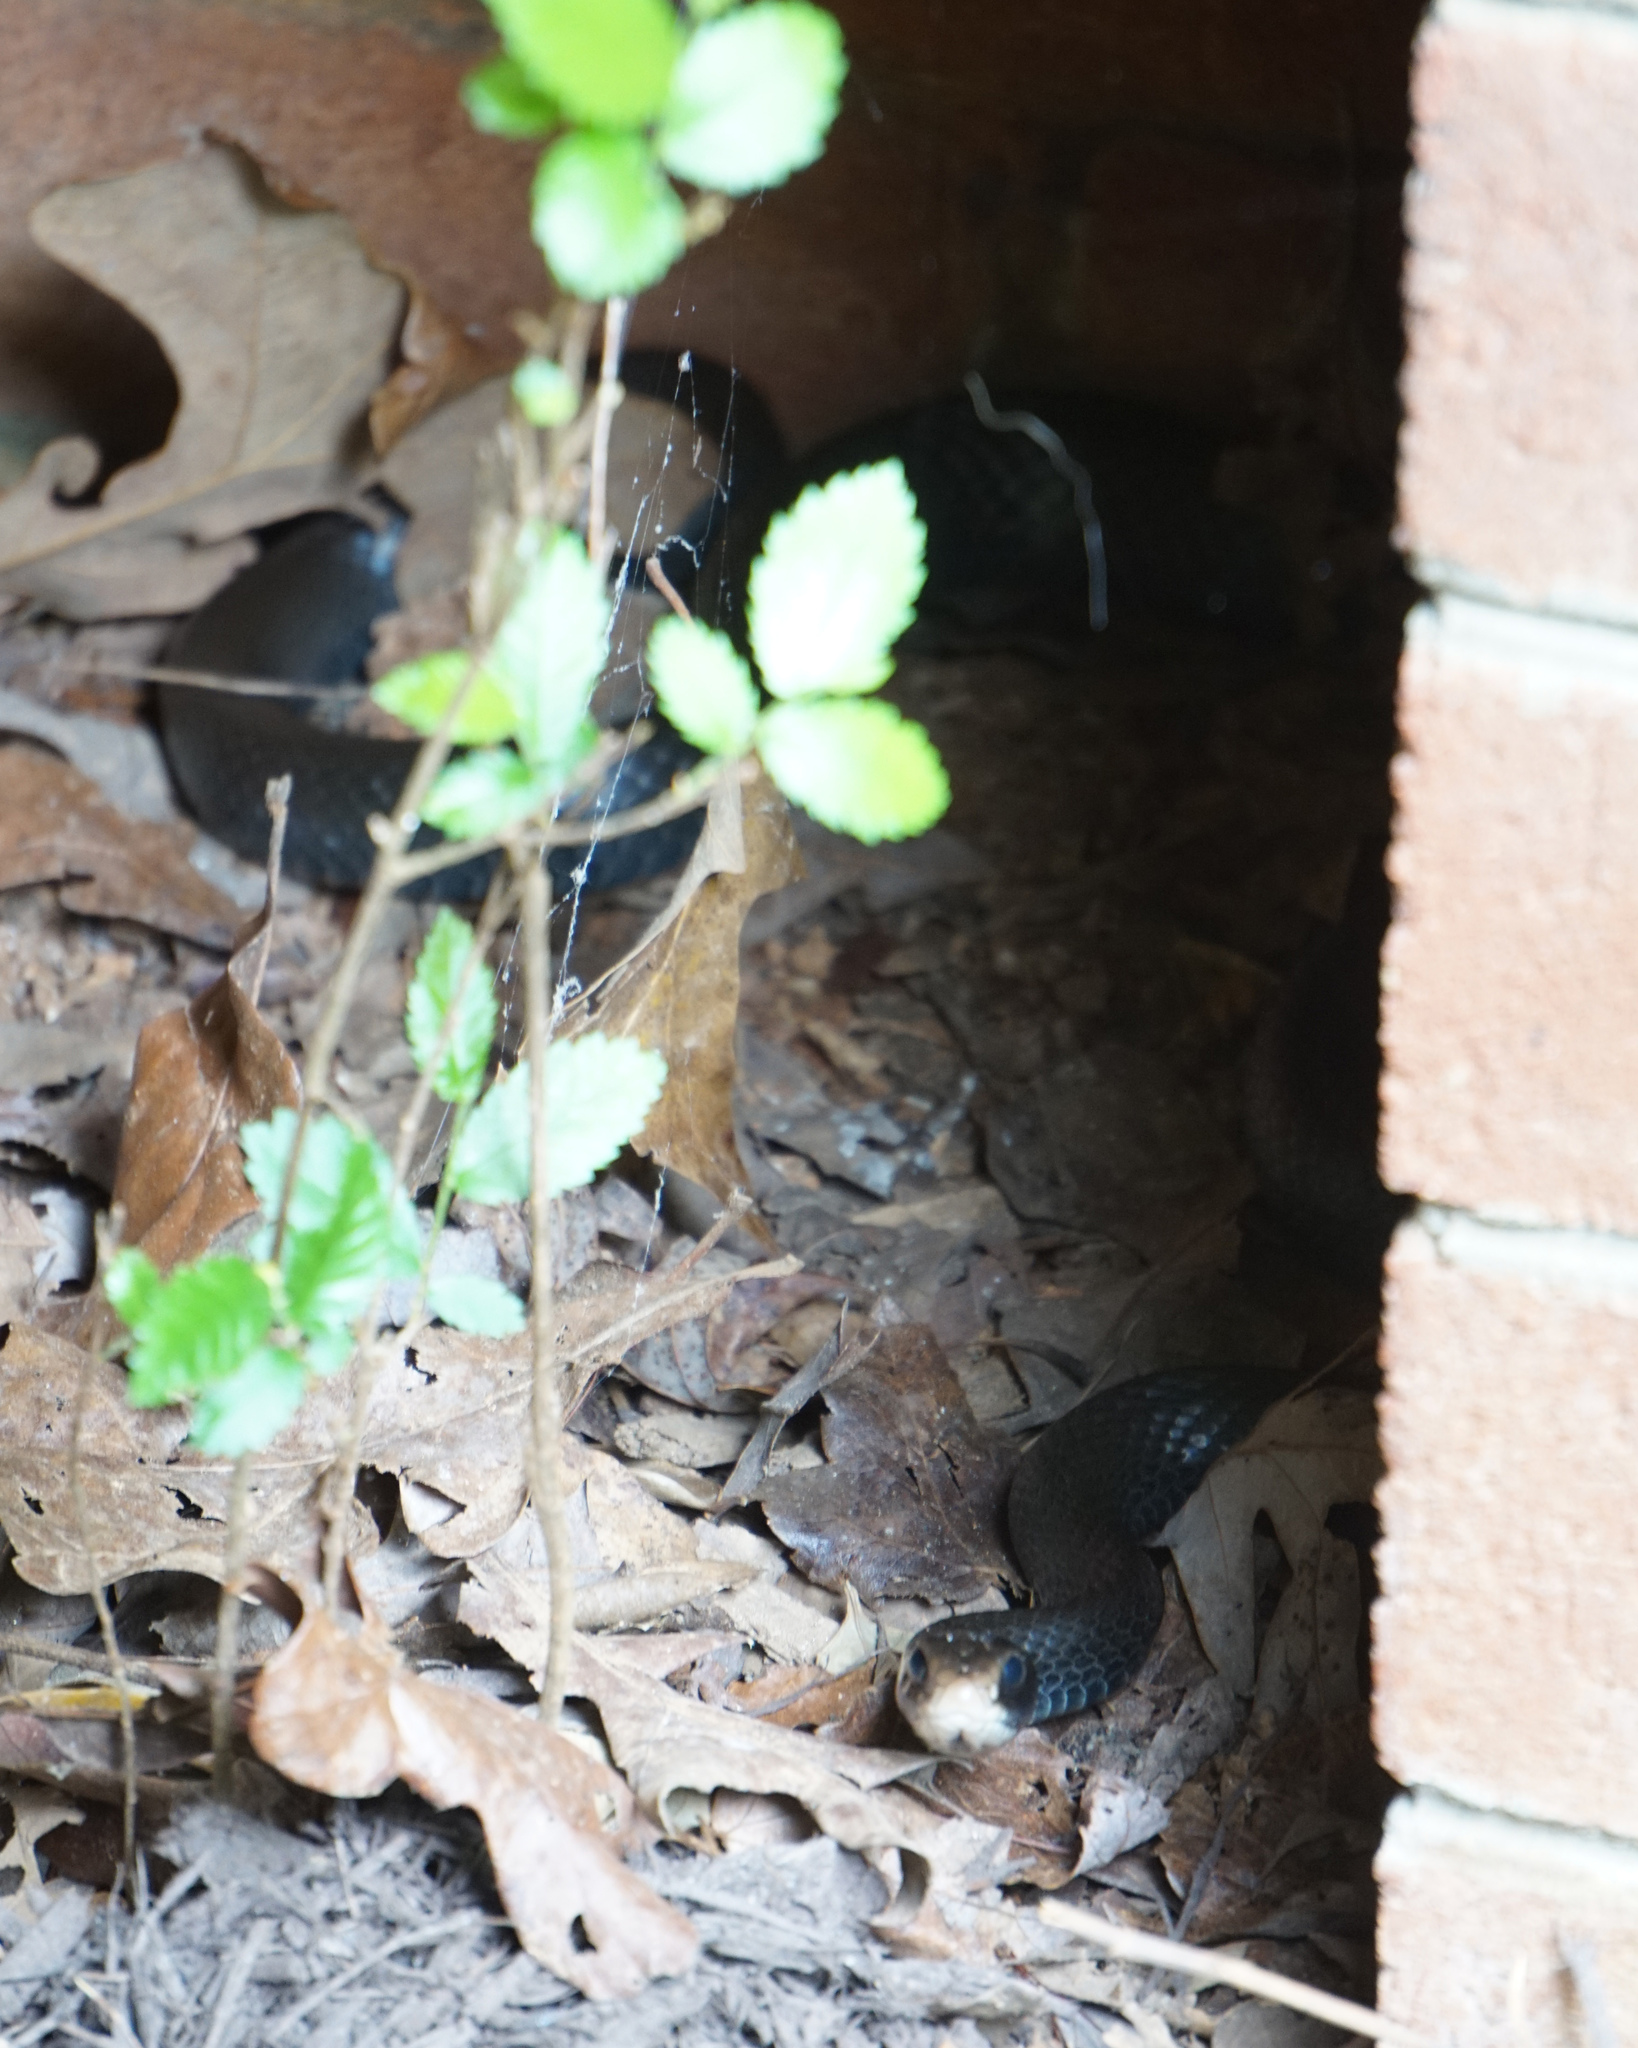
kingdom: Animalia
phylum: Chordata
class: Squamata
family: Colubridae
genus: Coluber
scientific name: Coluber constrictor
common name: Eastern racer
